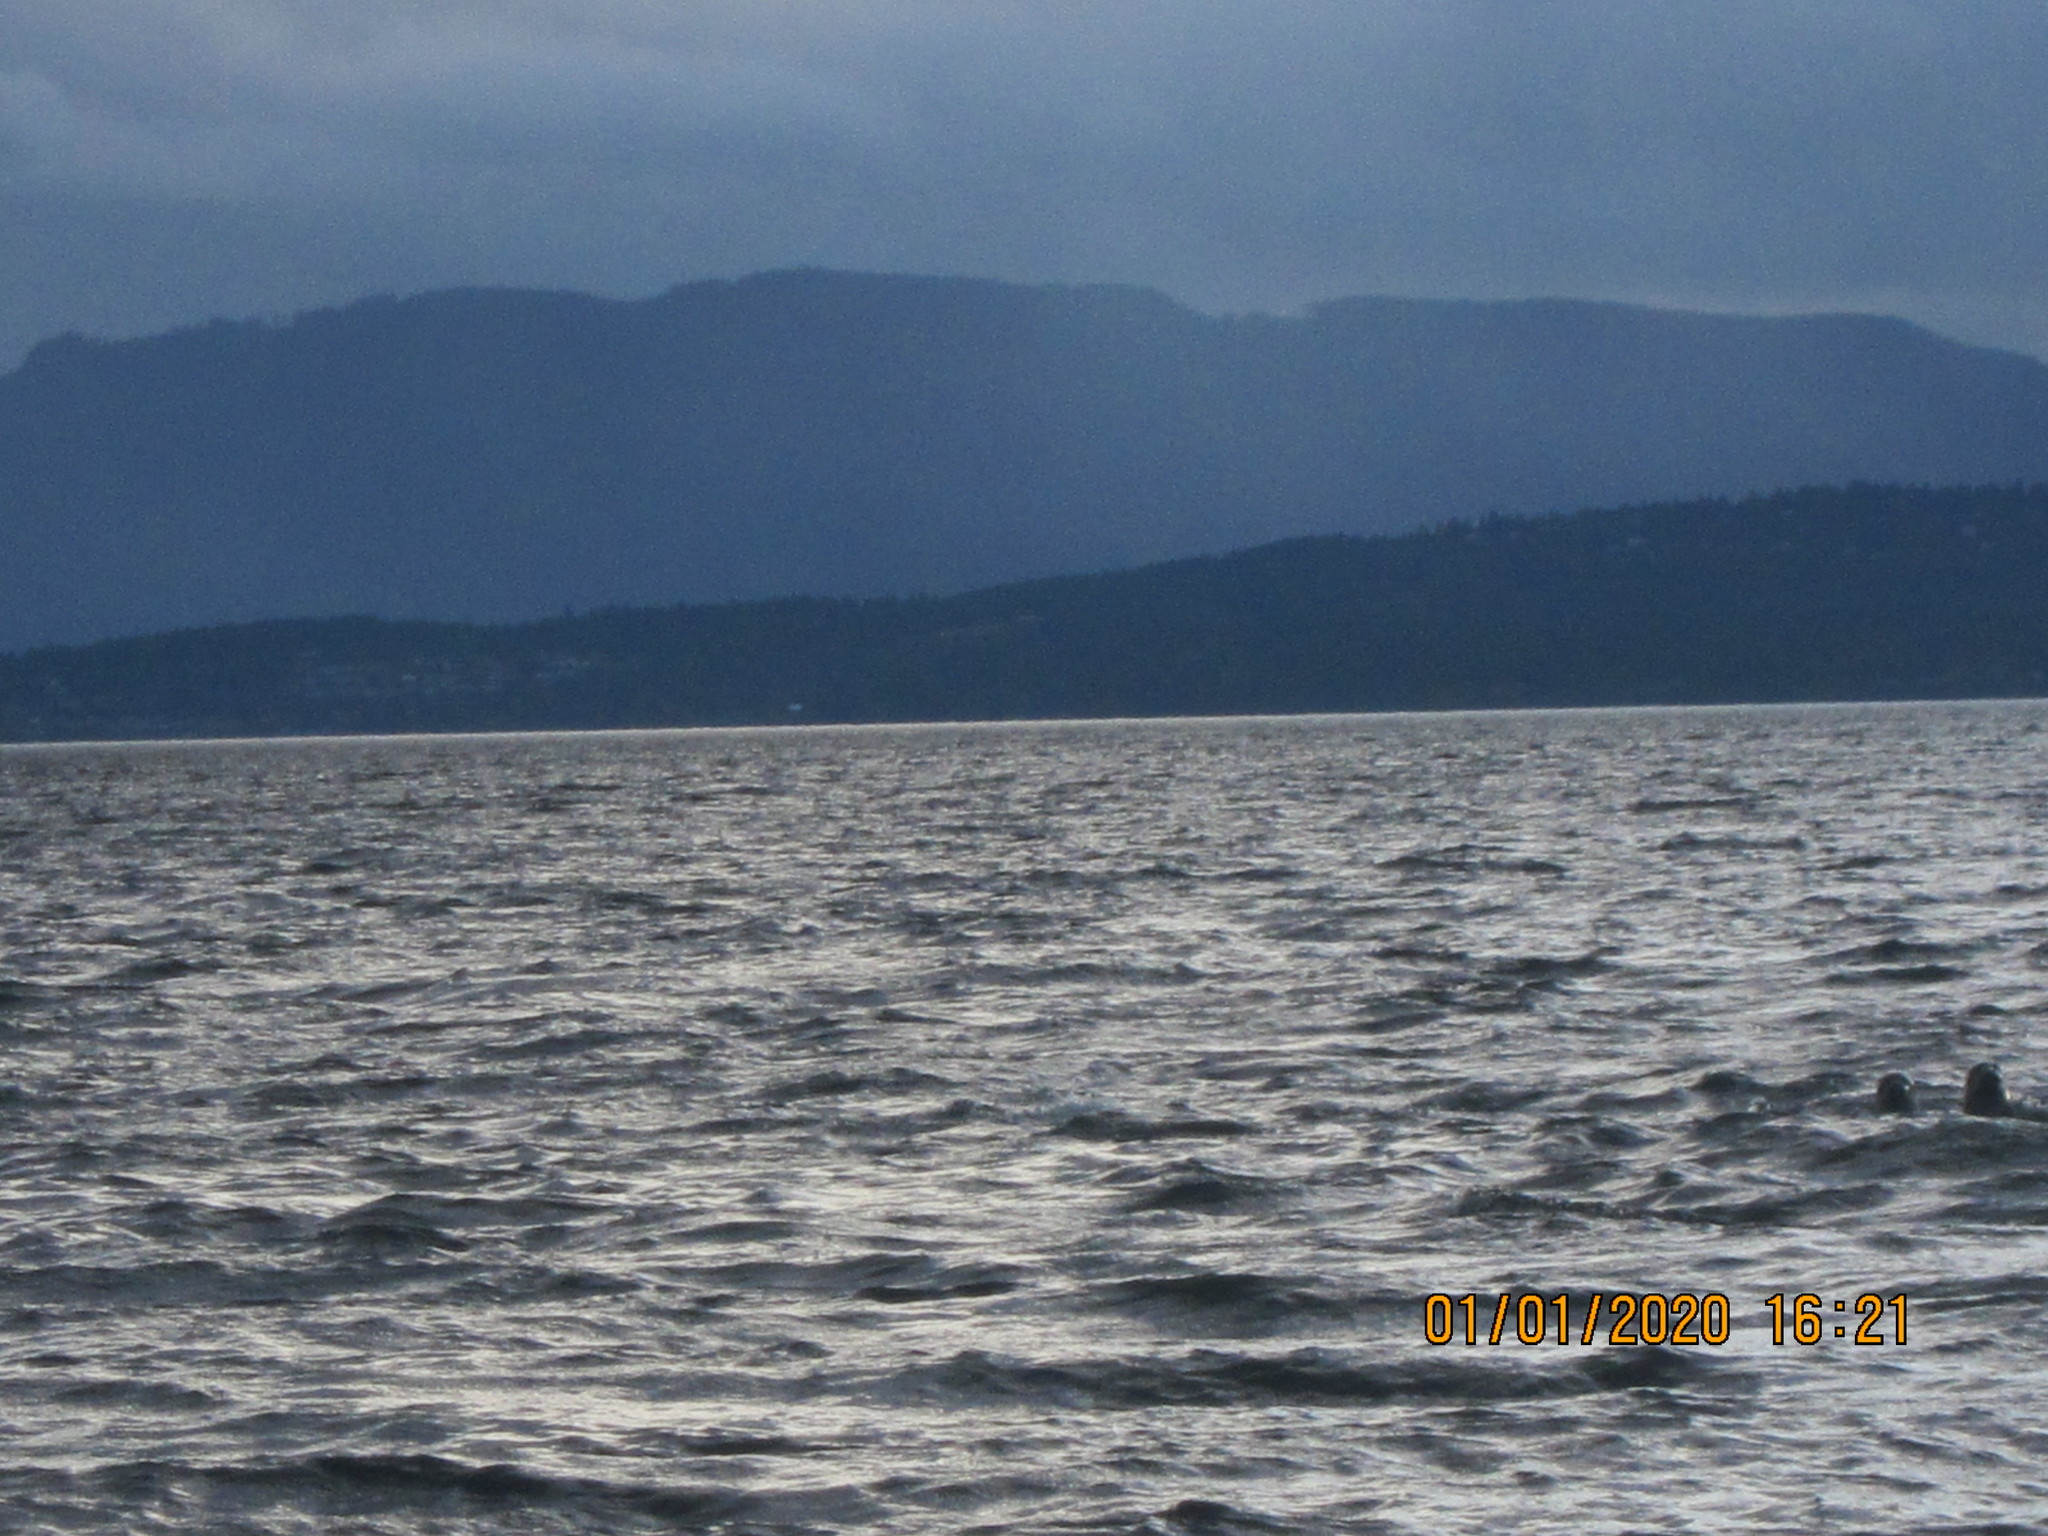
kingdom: Animalia
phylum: Chordata
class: Mammalia
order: Carnivora
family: Phocidae
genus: Phoca
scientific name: Phoca vitulina
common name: Harbor seal
